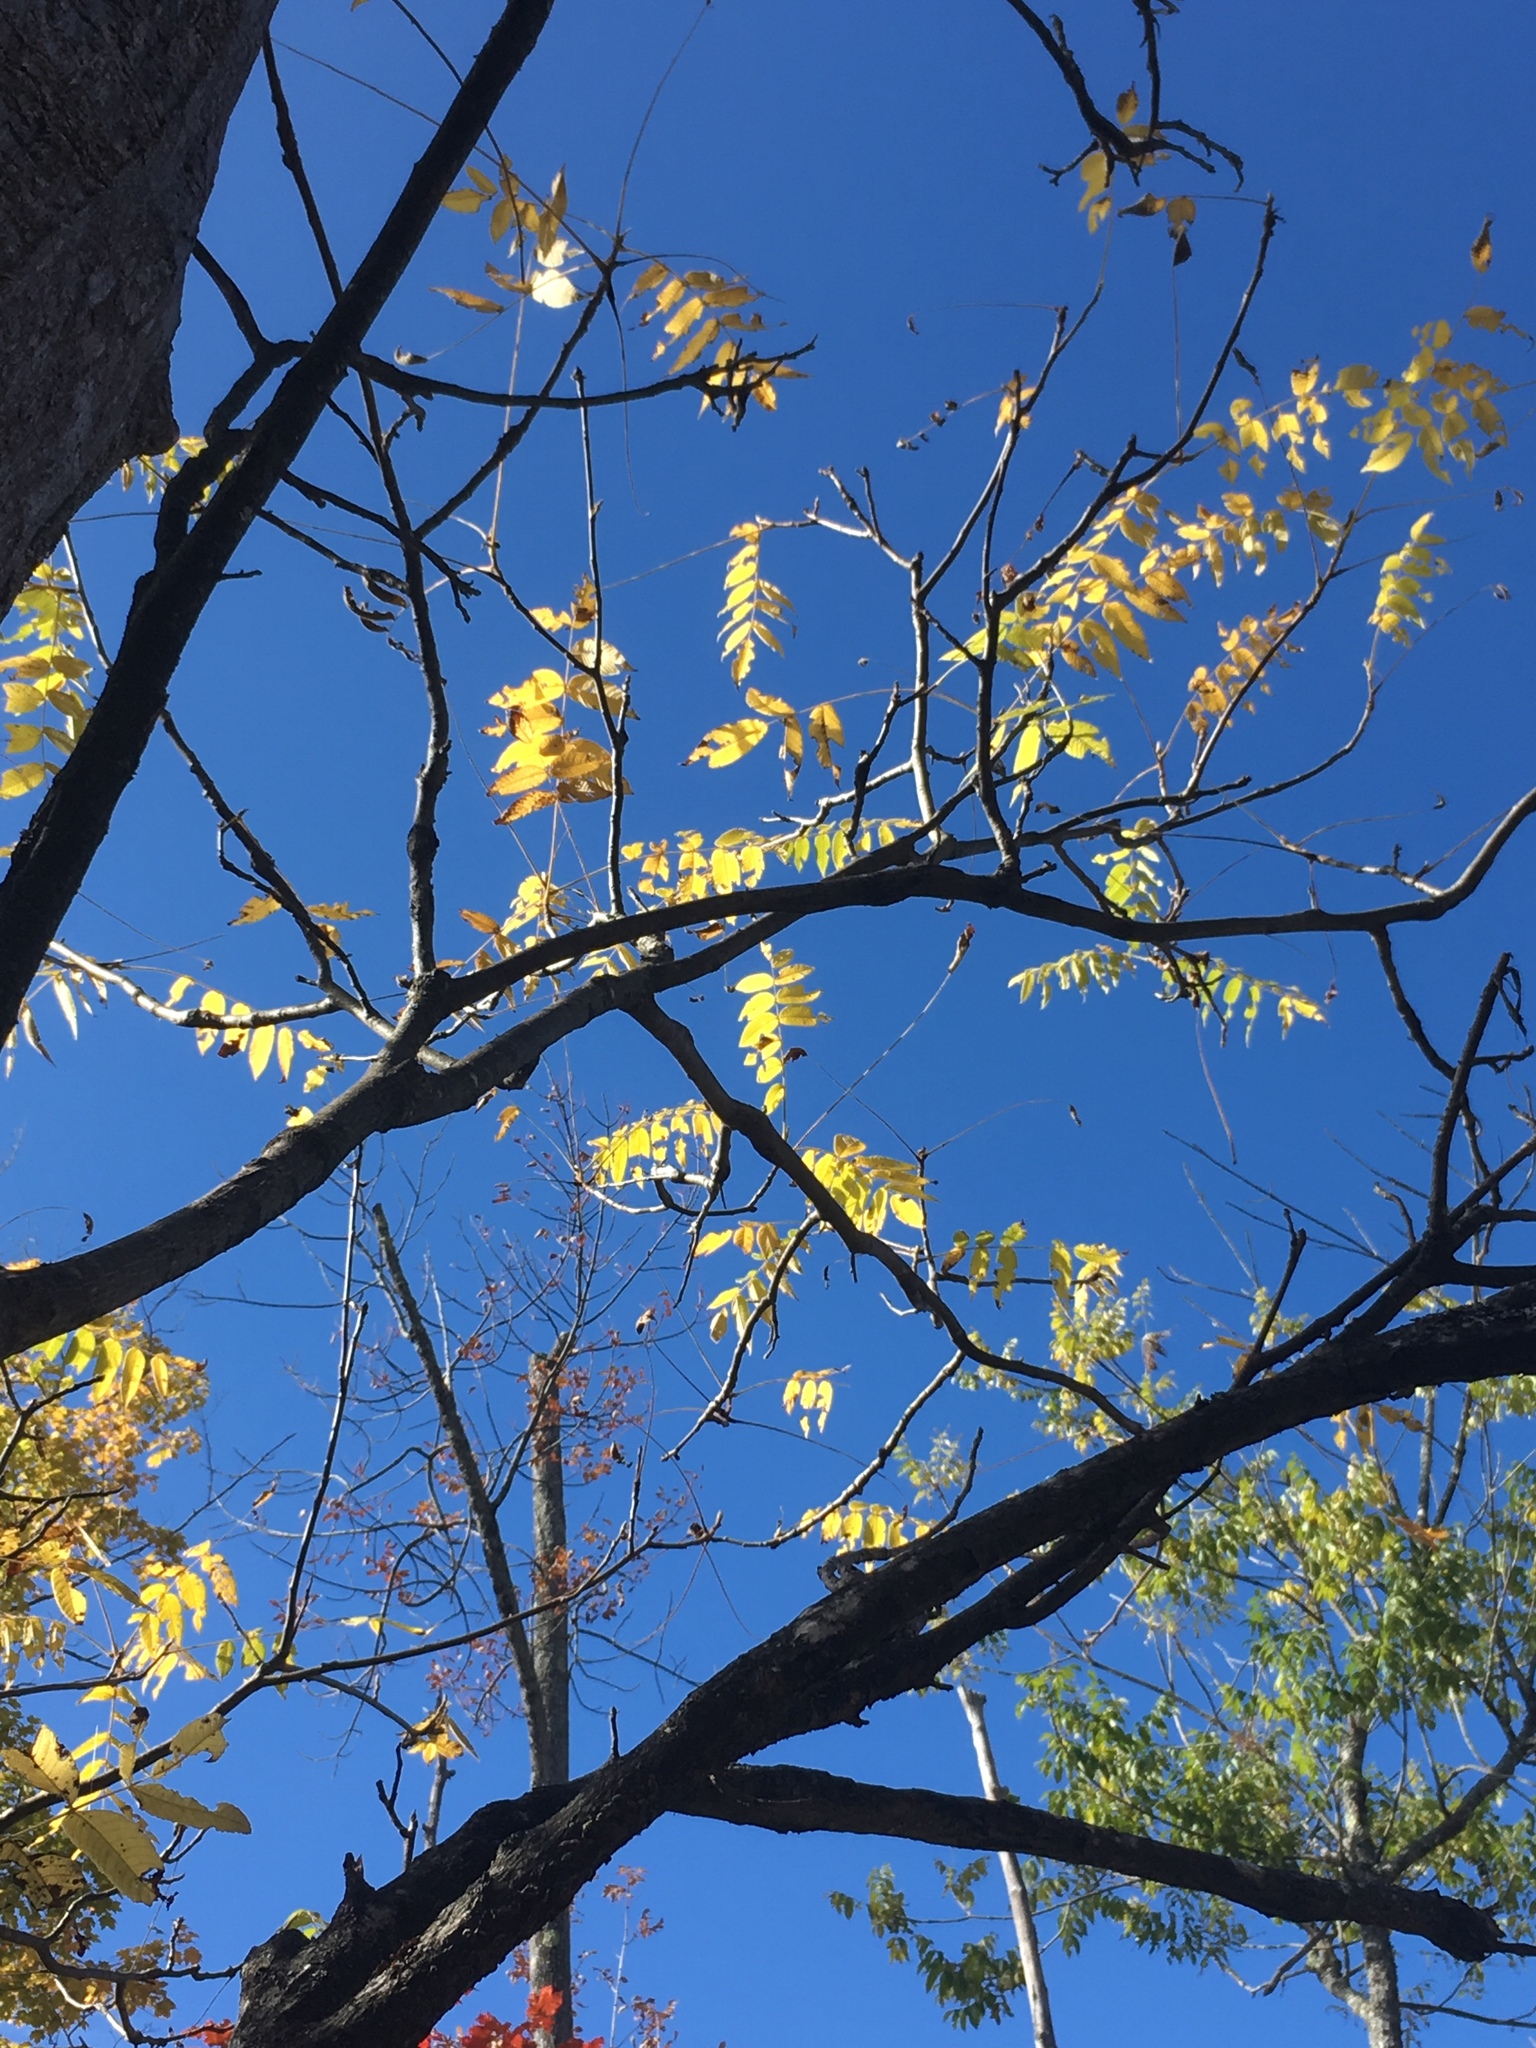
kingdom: Plantae
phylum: Tracheophyta
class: Magnoliopsida
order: Fagales
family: Juglandaceae
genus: Juglans
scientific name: Juglans cinerea
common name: Butternut
